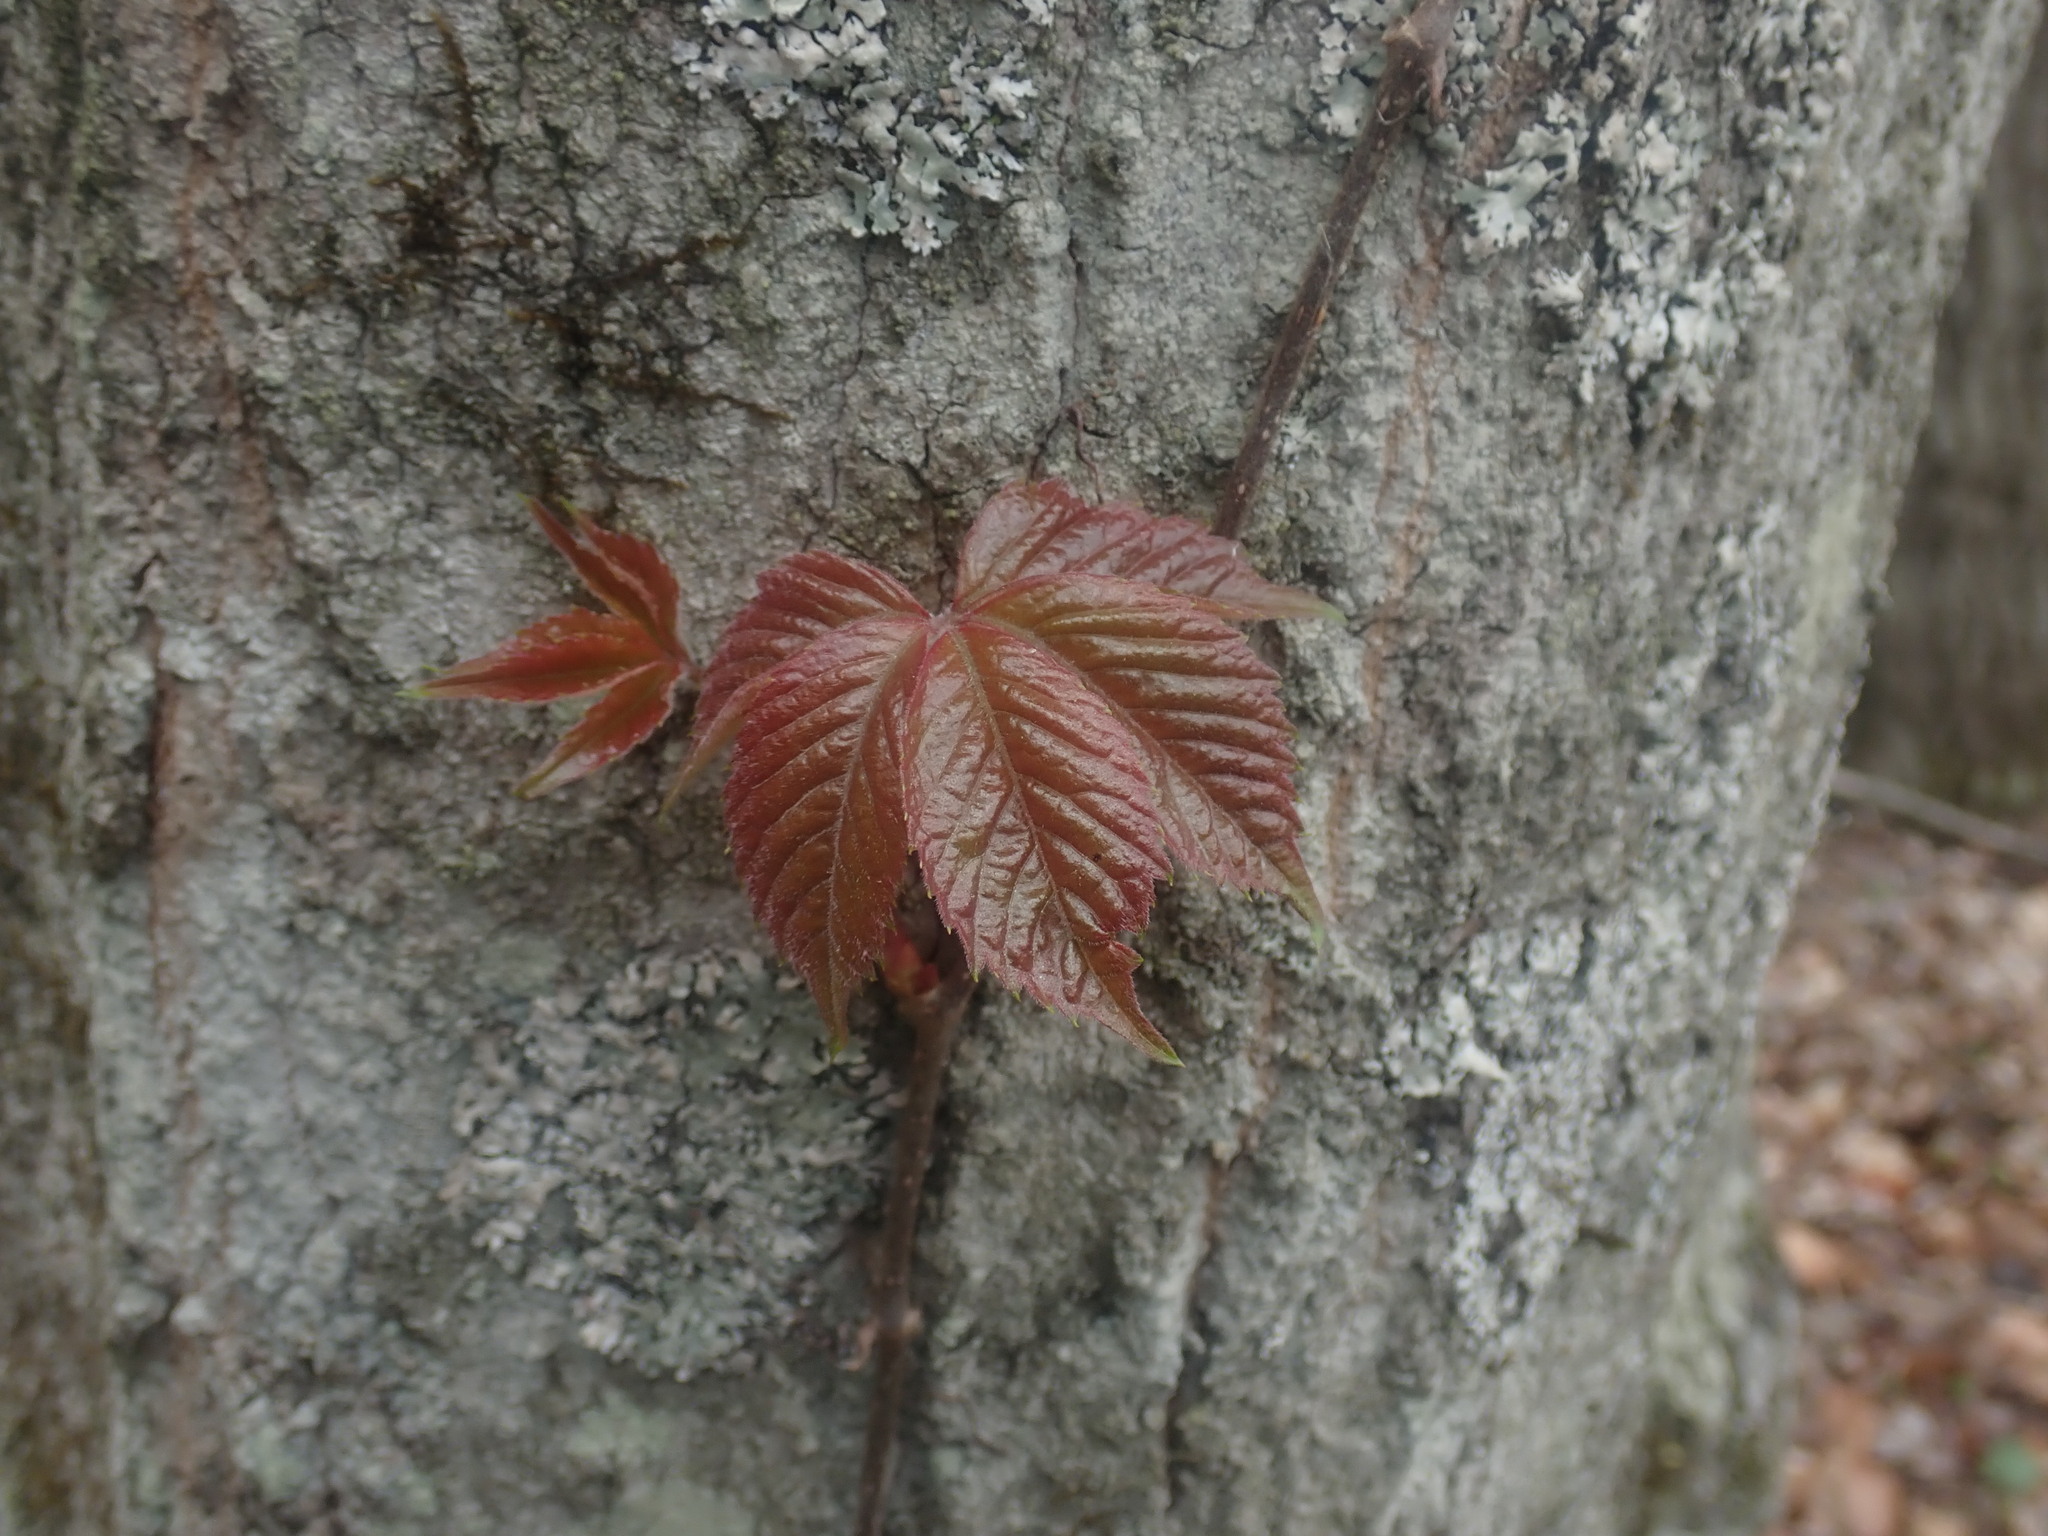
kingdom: Plantae
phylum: Tracheophyta
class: Magnoliopsida
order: Vitales
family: Vitaceae
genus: Parthenocissus
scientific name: Parthenocissus quinquefolia
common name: Virginia-creeper
